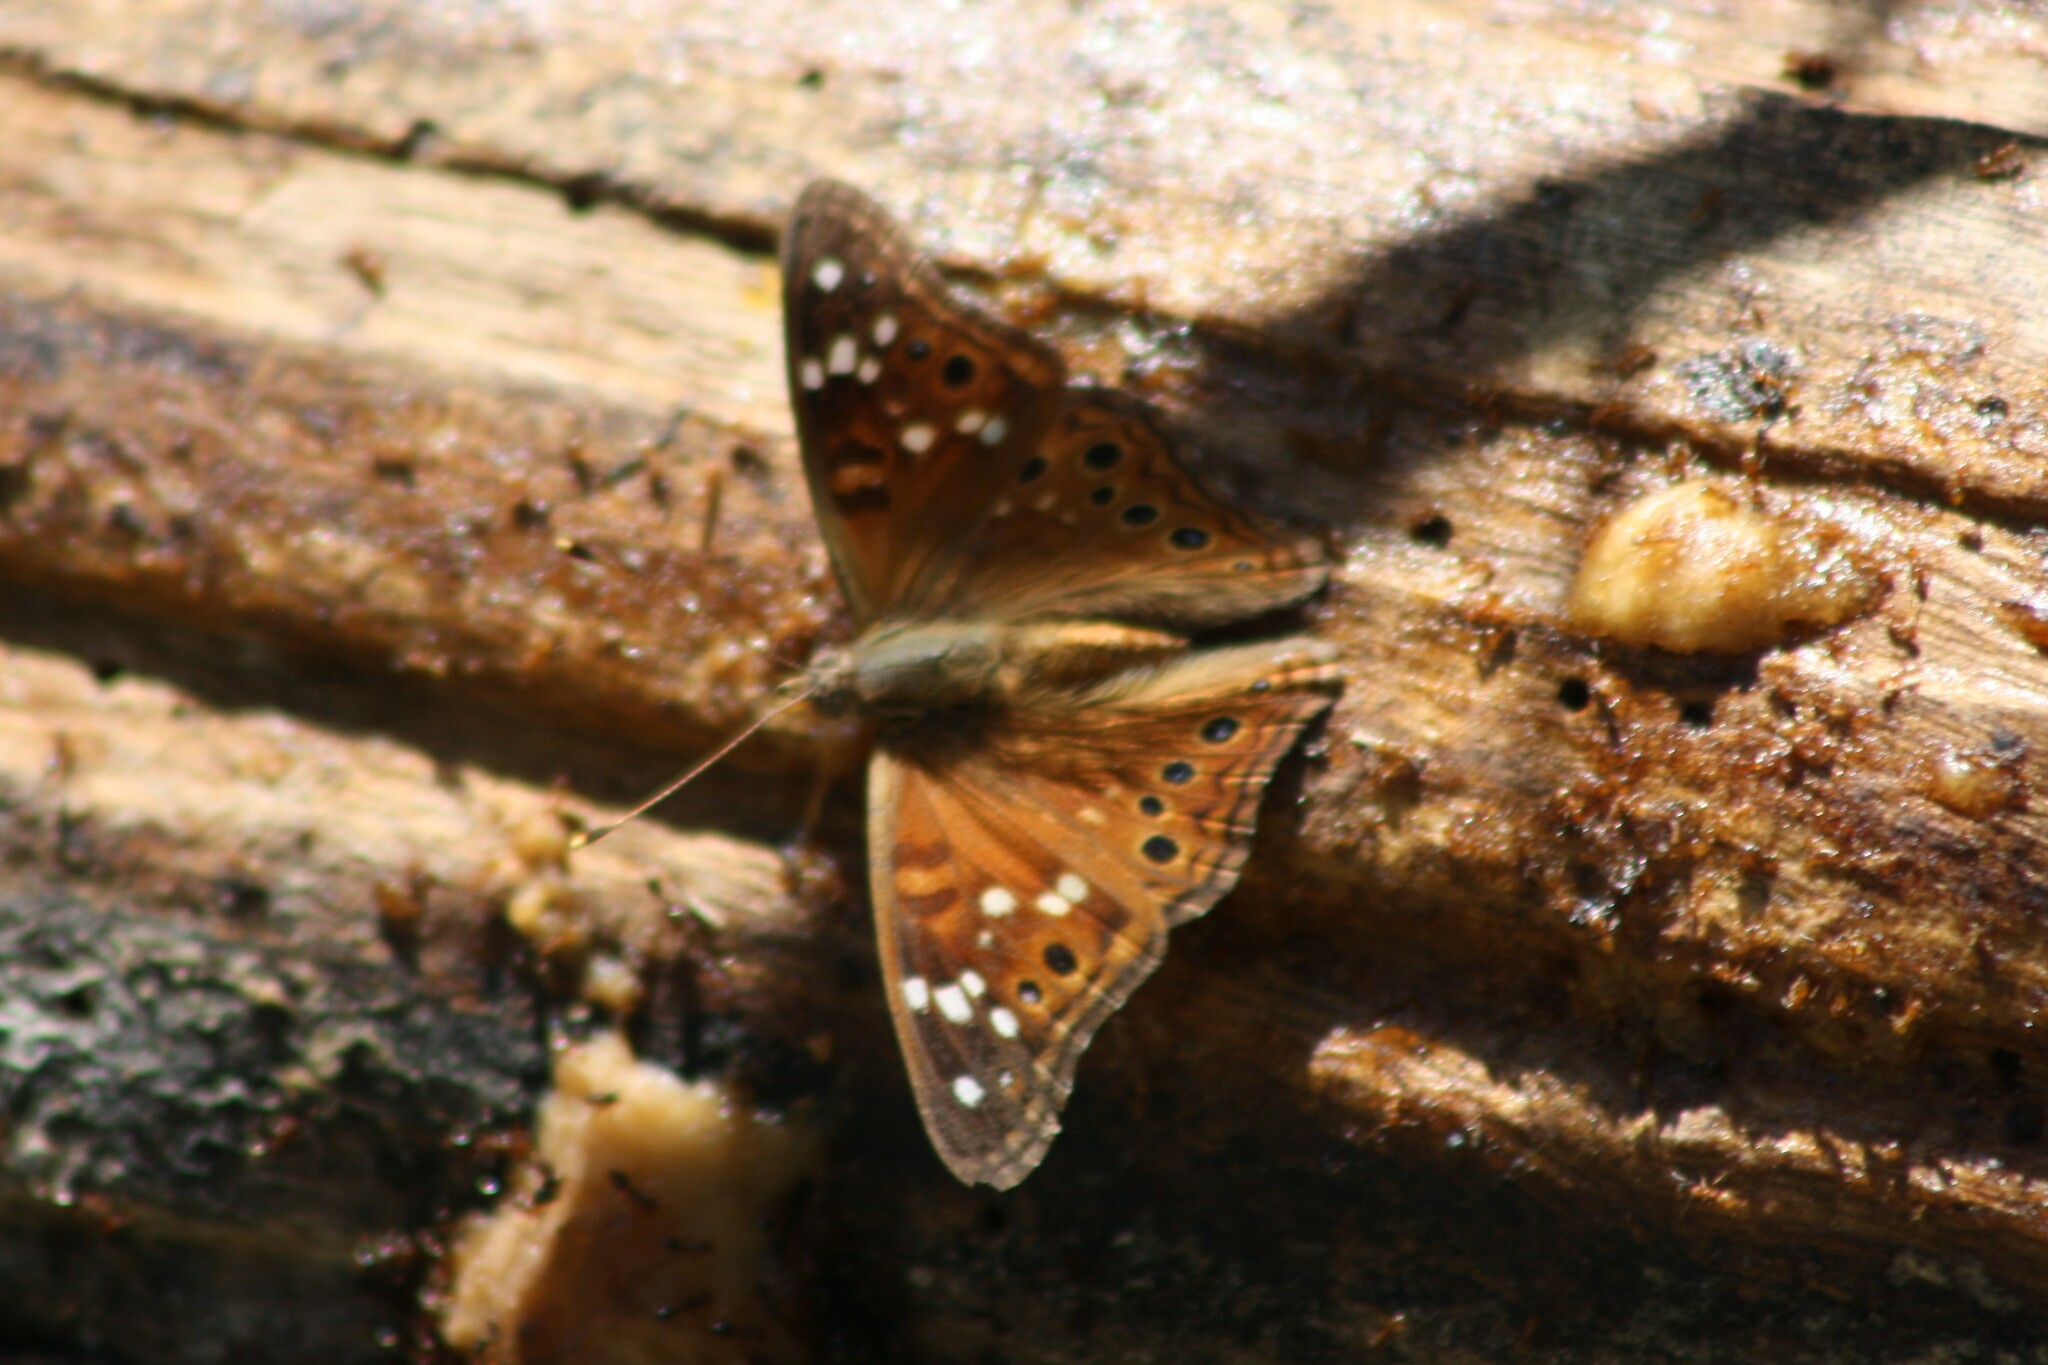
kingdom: Animalia
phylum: Arthropoda
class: Insecta
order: Lepidoptera
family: Nymphalidae
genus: Asterocampa
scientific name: Asterocampa leilia
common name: Empress leilia
